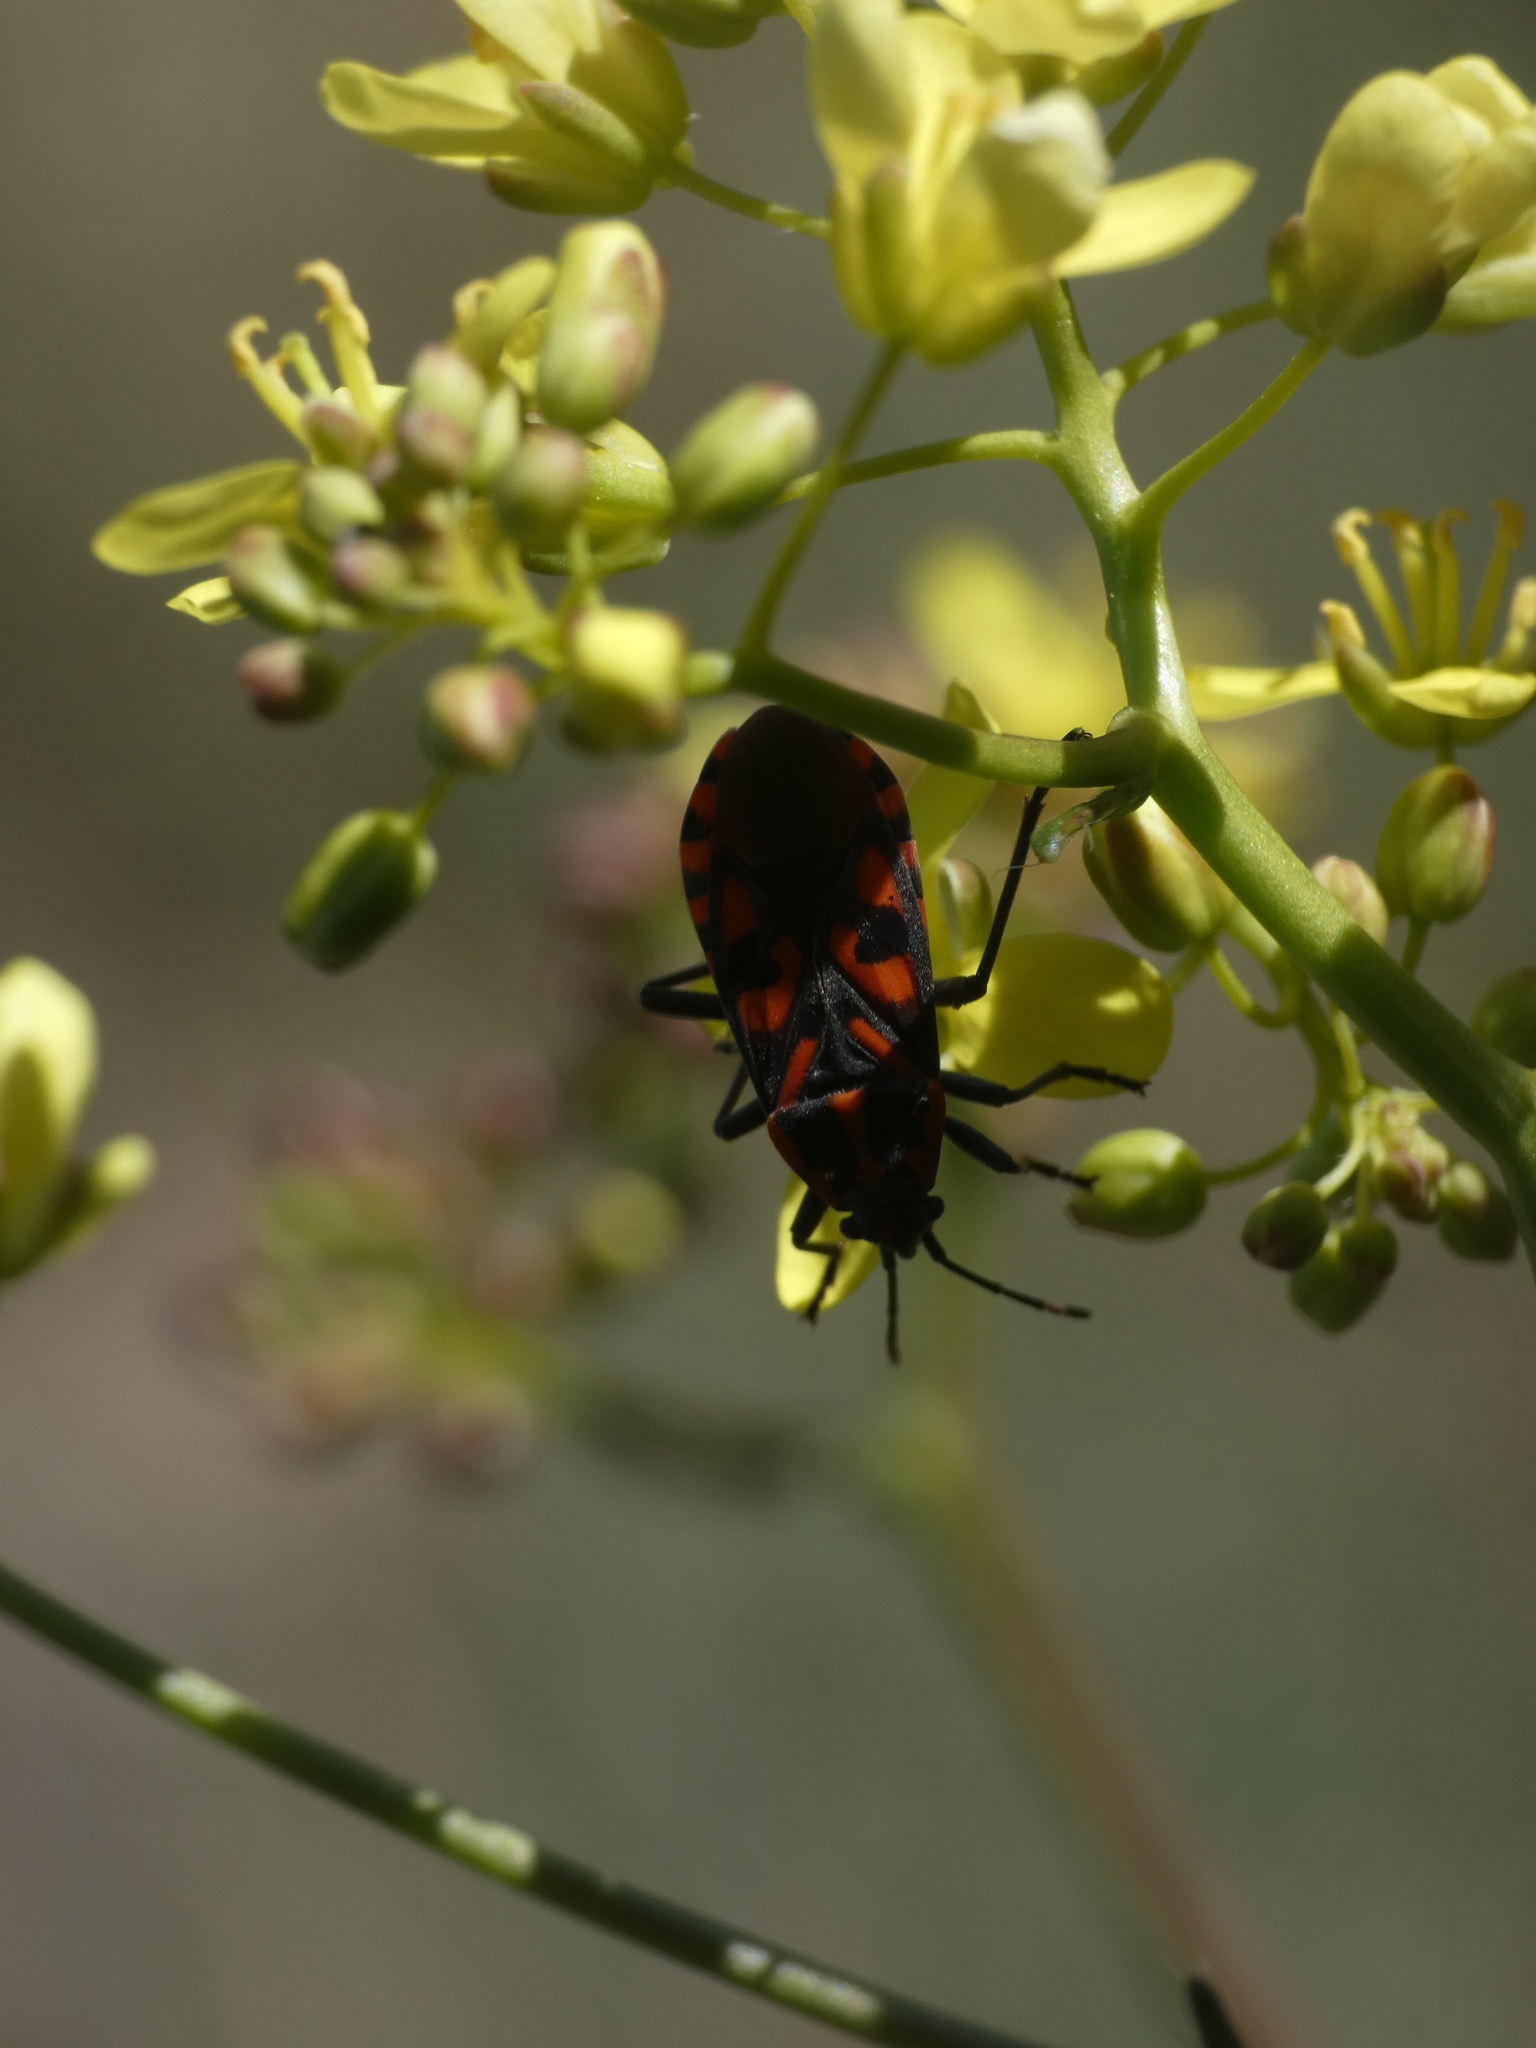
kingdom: Animalia
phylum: Arthropoda
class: Insecta
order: Hemiptera
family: Lygaeidae
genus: Spilostethus
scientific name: Spilostethus saxatilis
